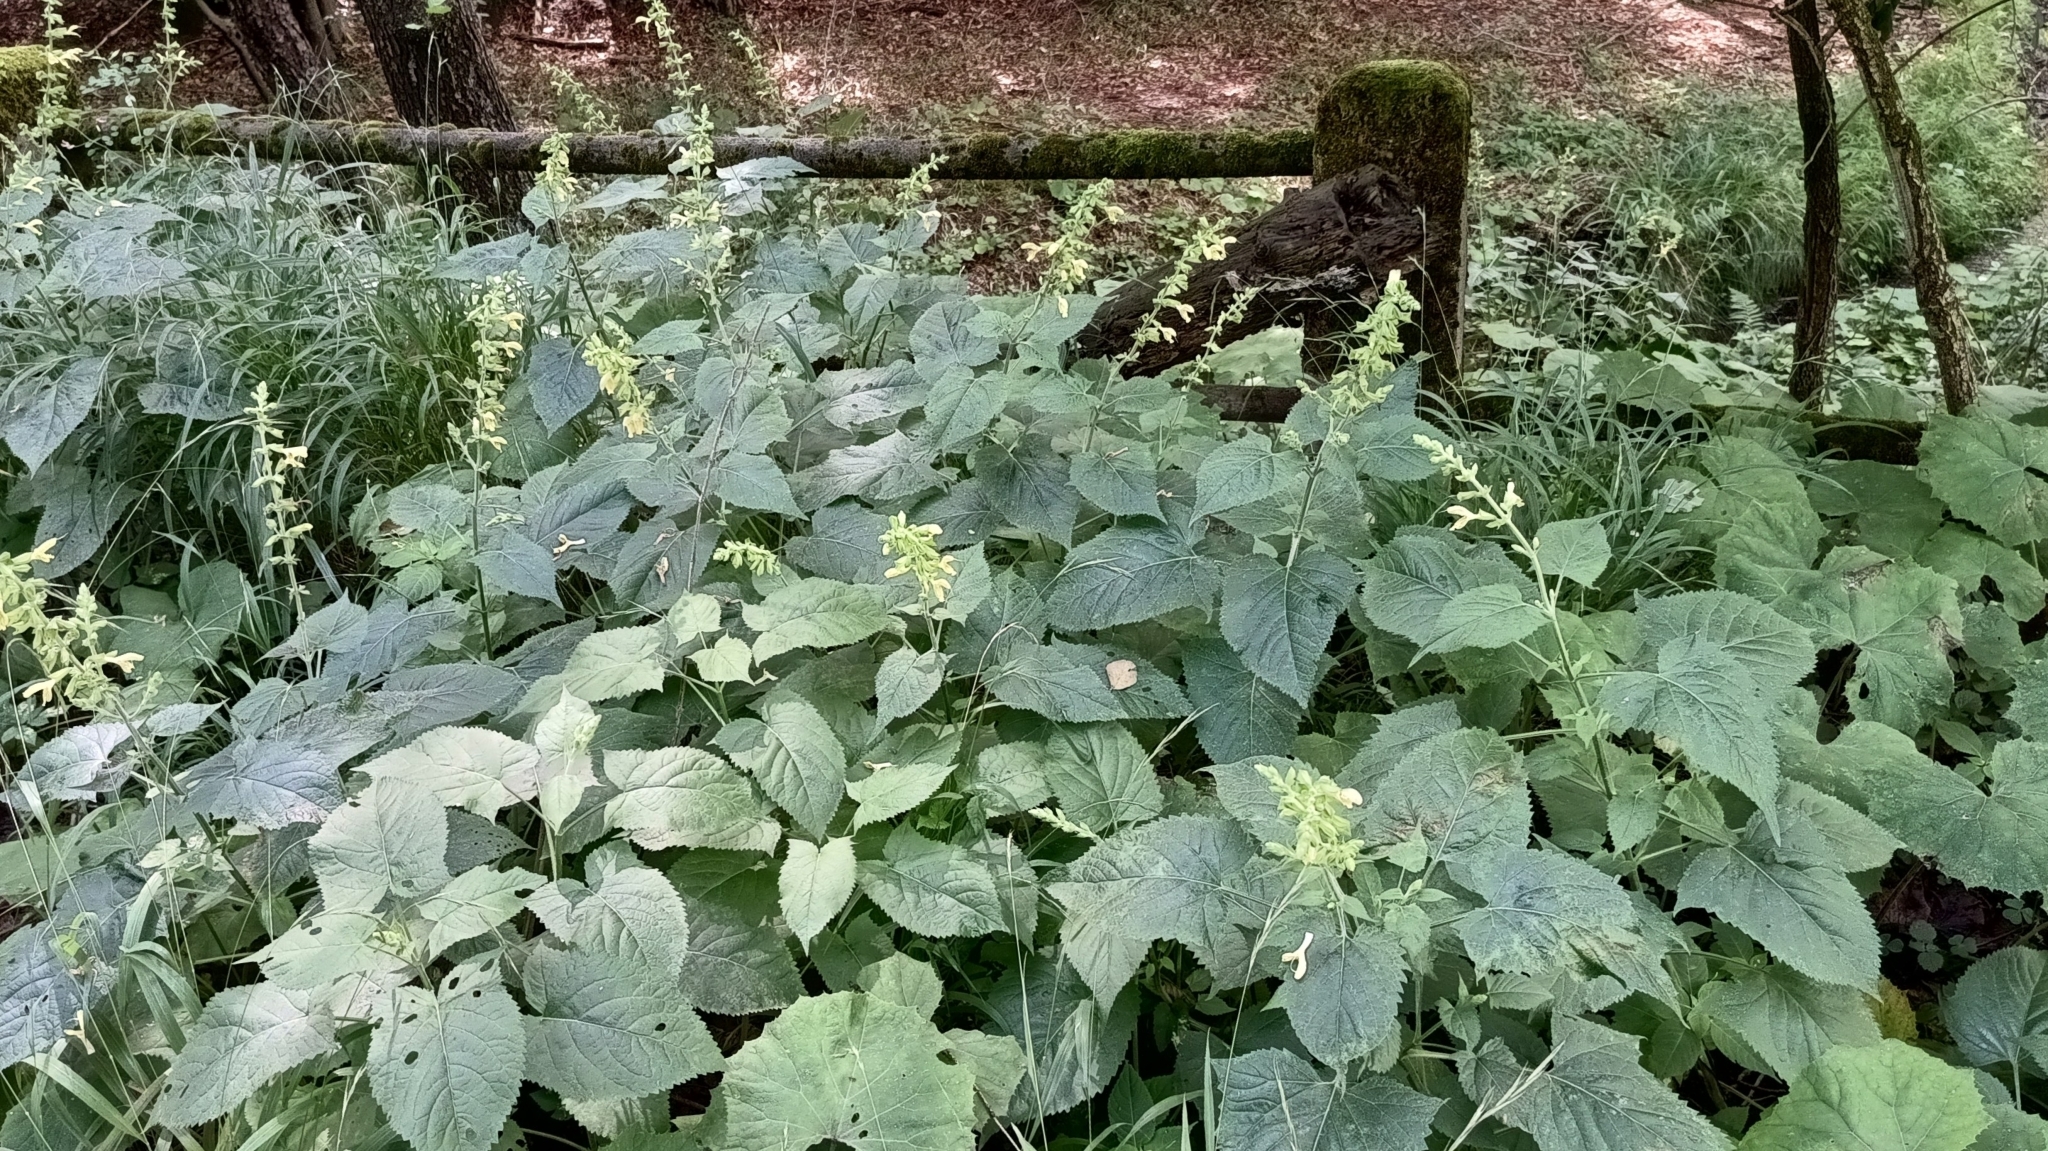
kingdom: Plantae
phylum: Tracheophyta
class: Magnoliopsida
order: Lamiales
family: Lamiaceae
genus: Salvia
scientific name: Salvia glutinosa
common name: Sticky clary
